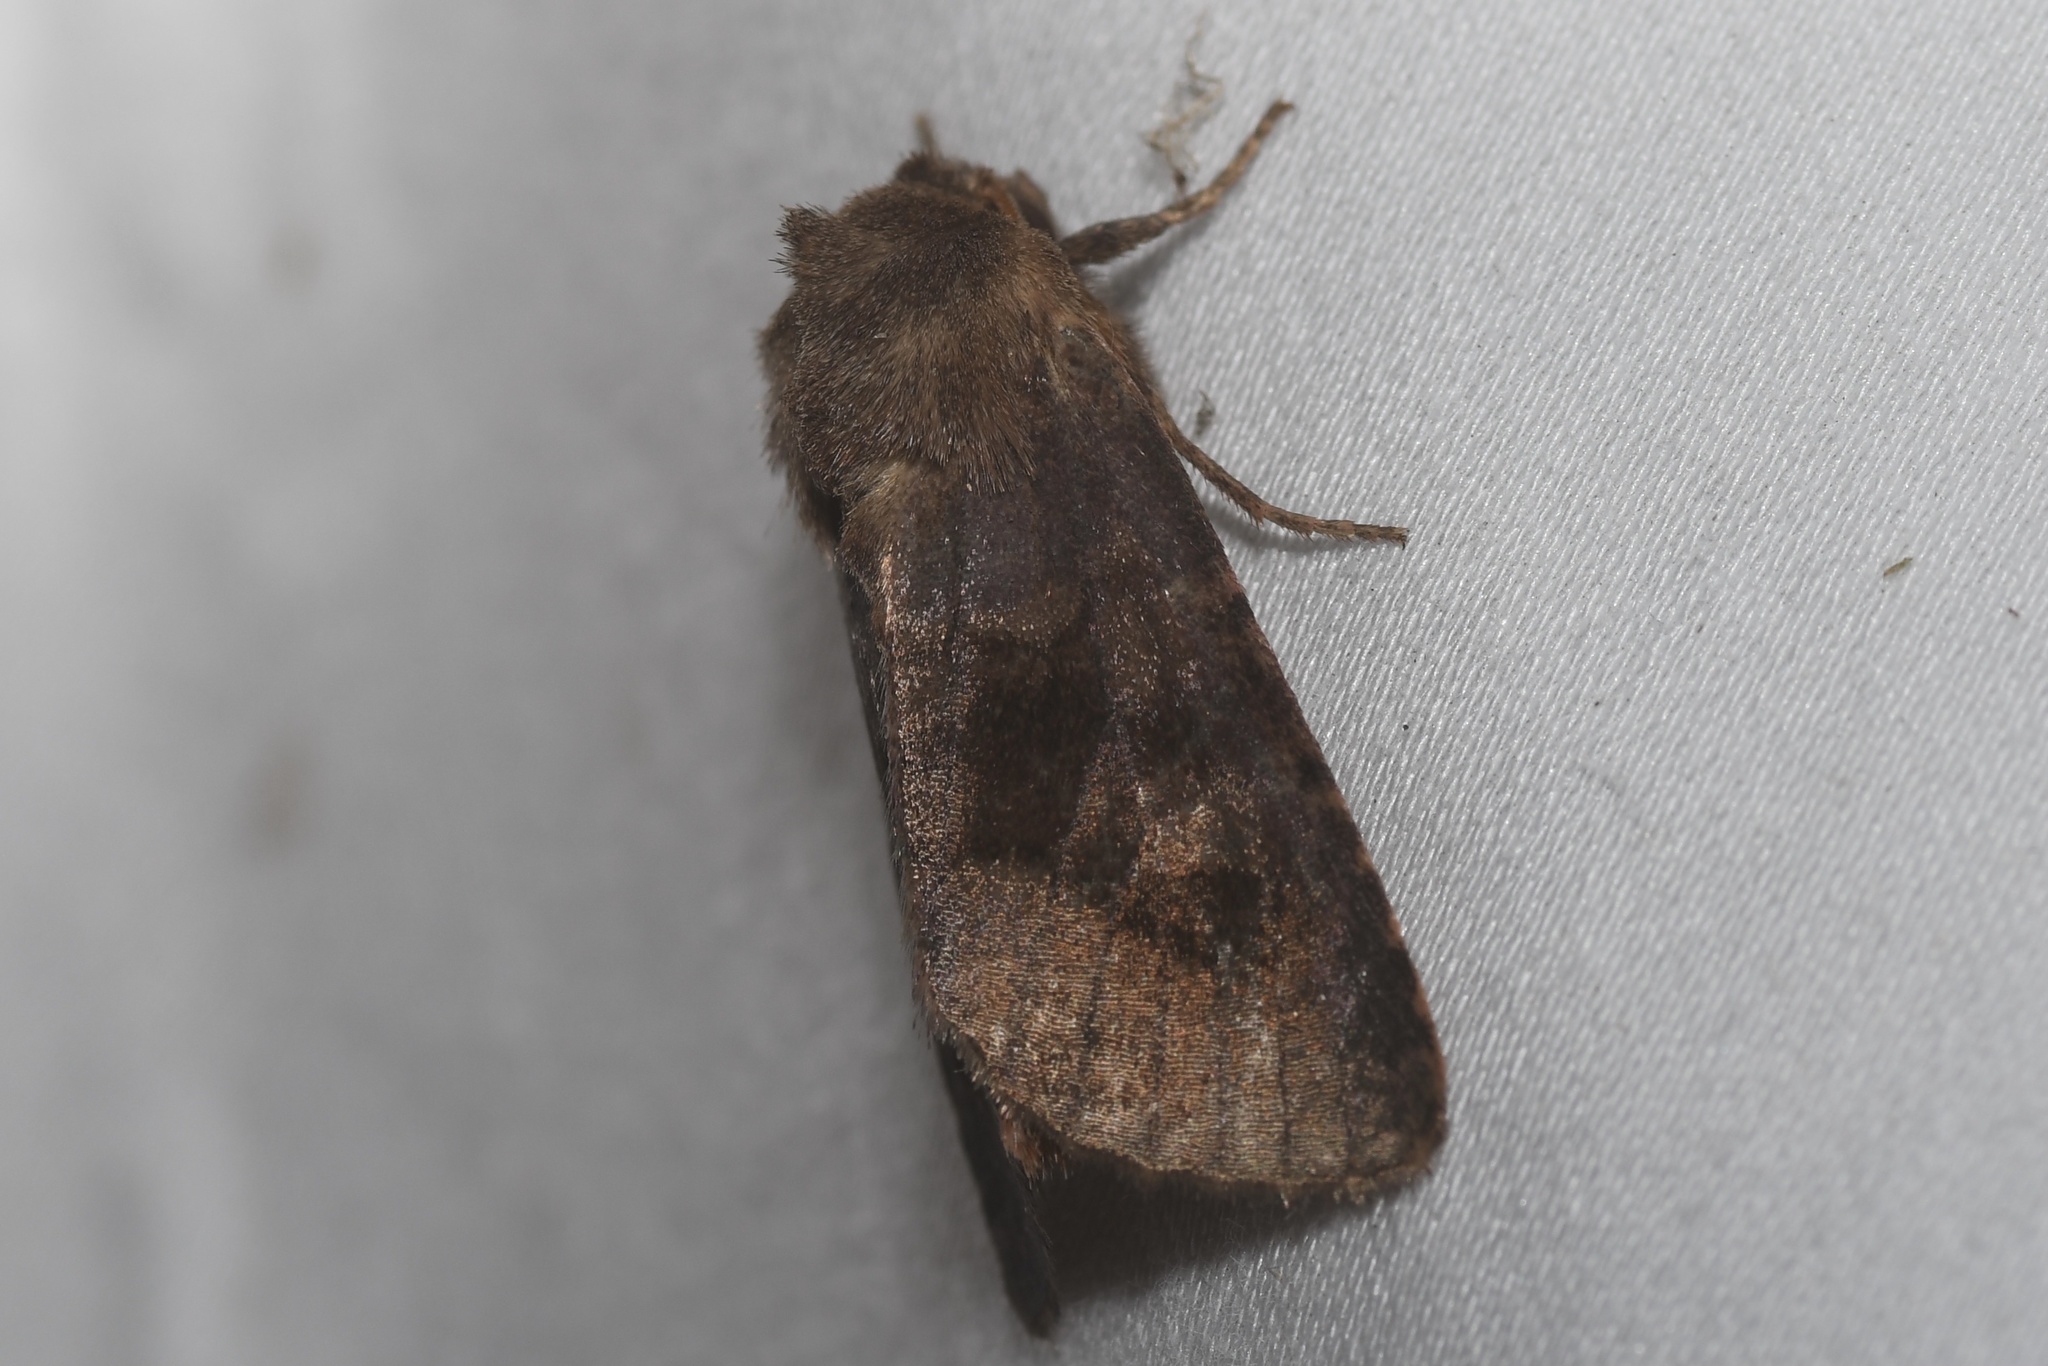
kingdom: Animalia
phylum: Arthropoda
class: Insecta
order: Lepidoptera
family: Noctuidae
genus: Nephelodes
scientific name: Nephelodes minians
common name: Bronzed cutworm
